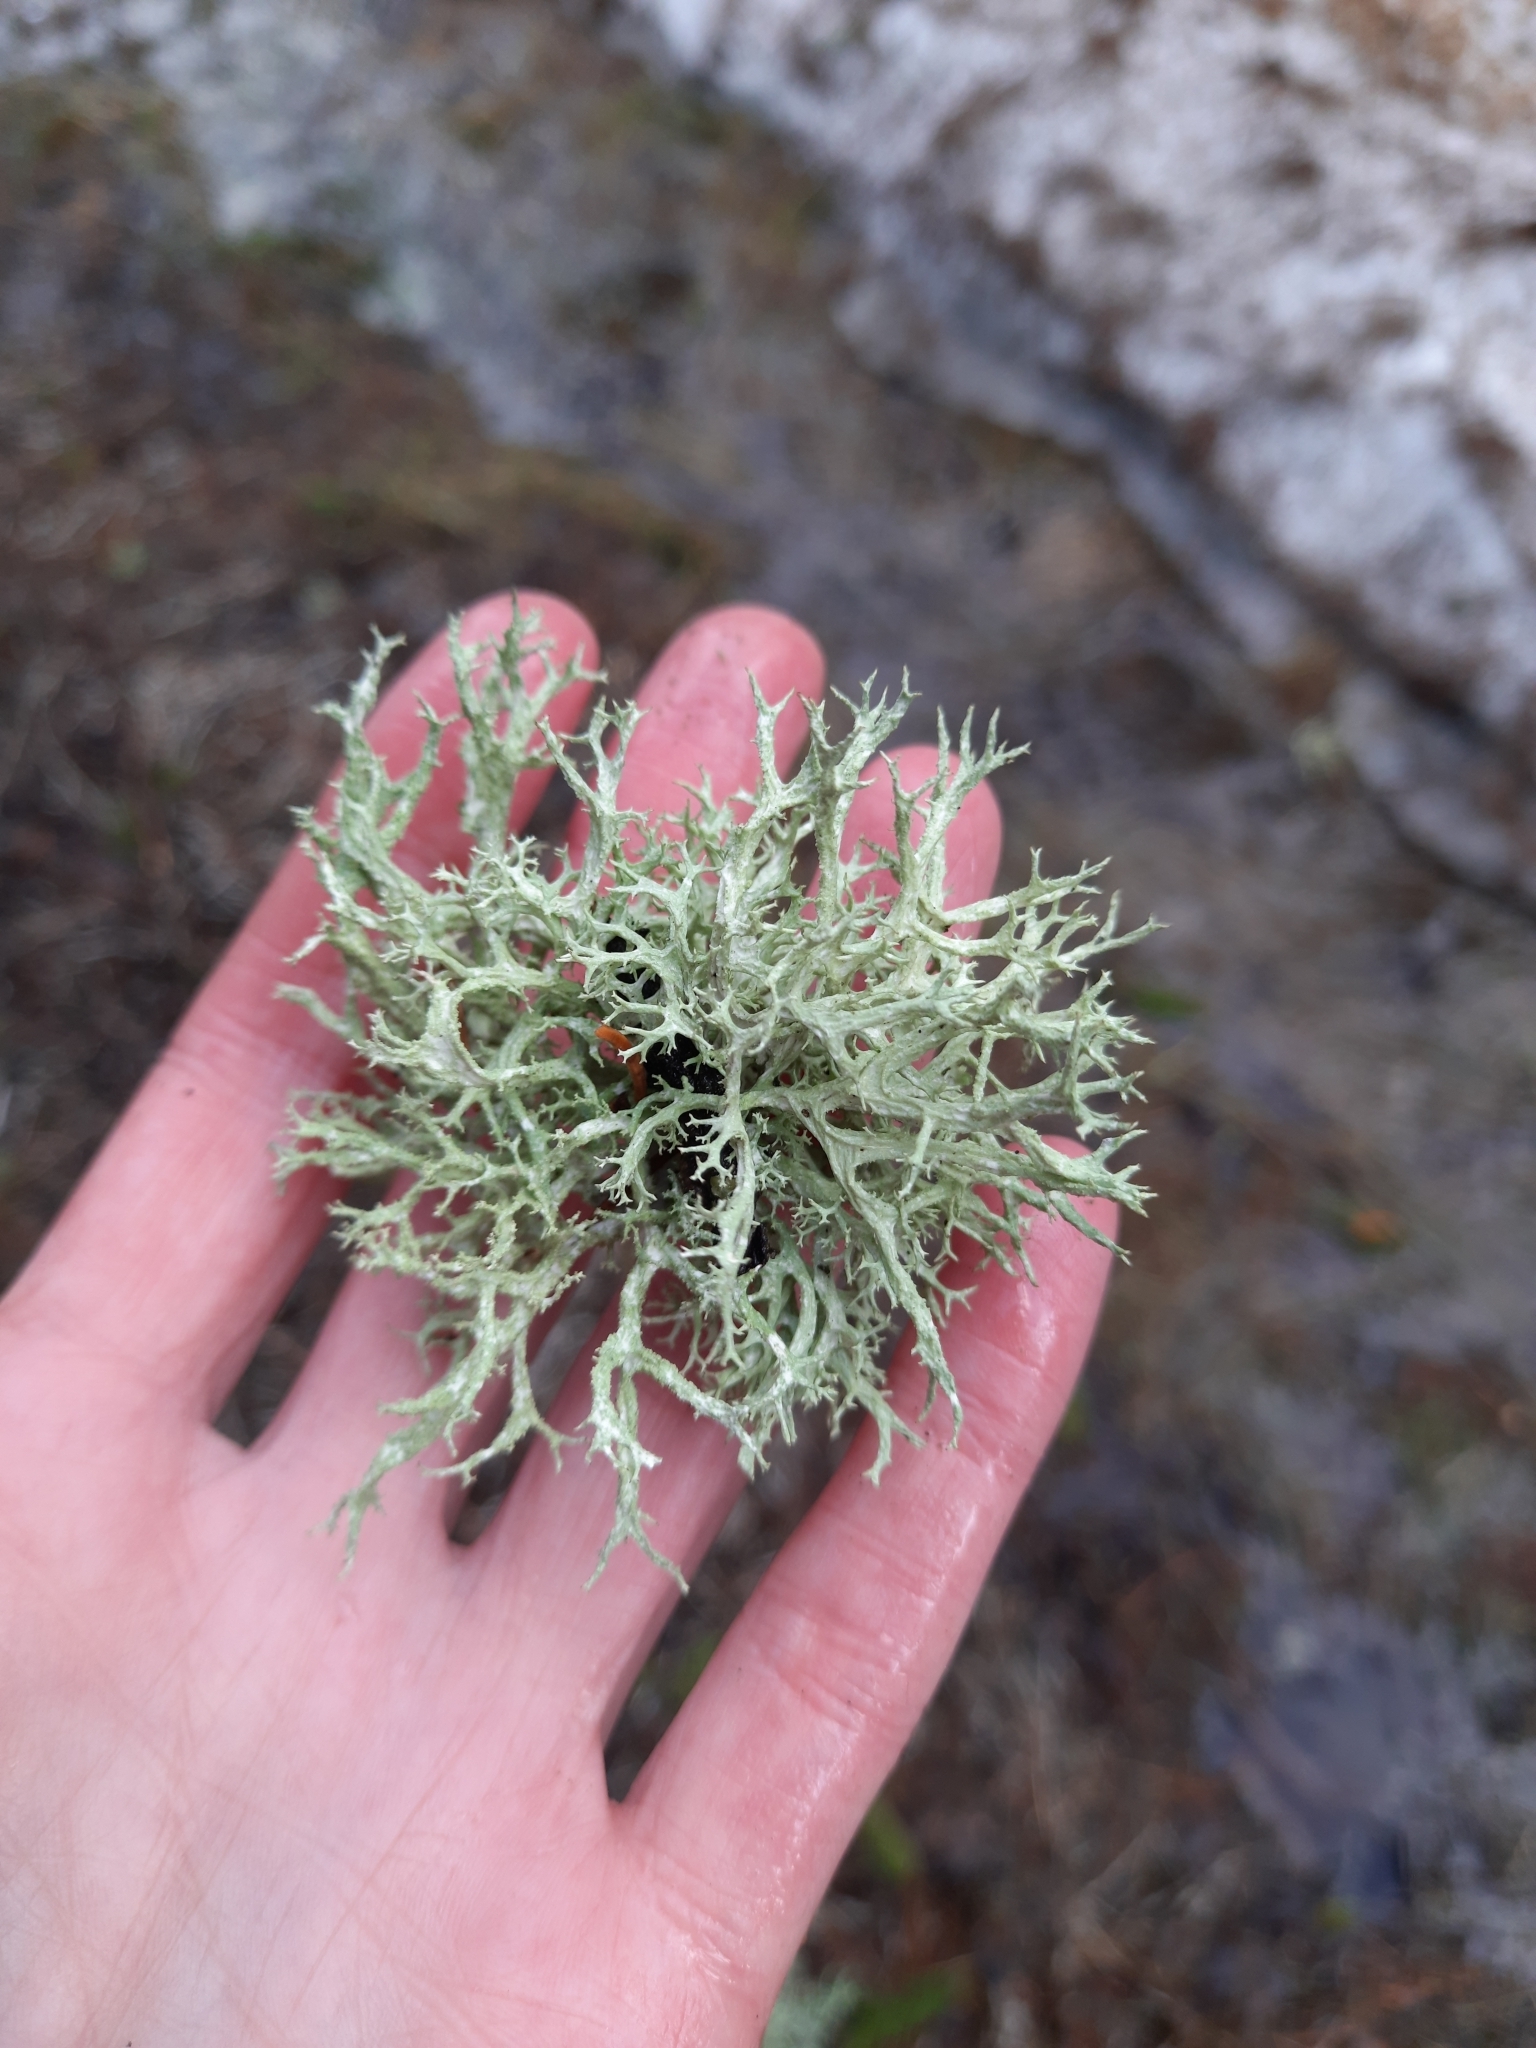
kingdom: Fungi
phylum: Ascomycota
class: Lecanoromycetes
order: Lecanorales
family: Parmeliaceae
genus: Evernia
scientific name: Evernia mesomorpha
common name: Boreal oak moss lichen
